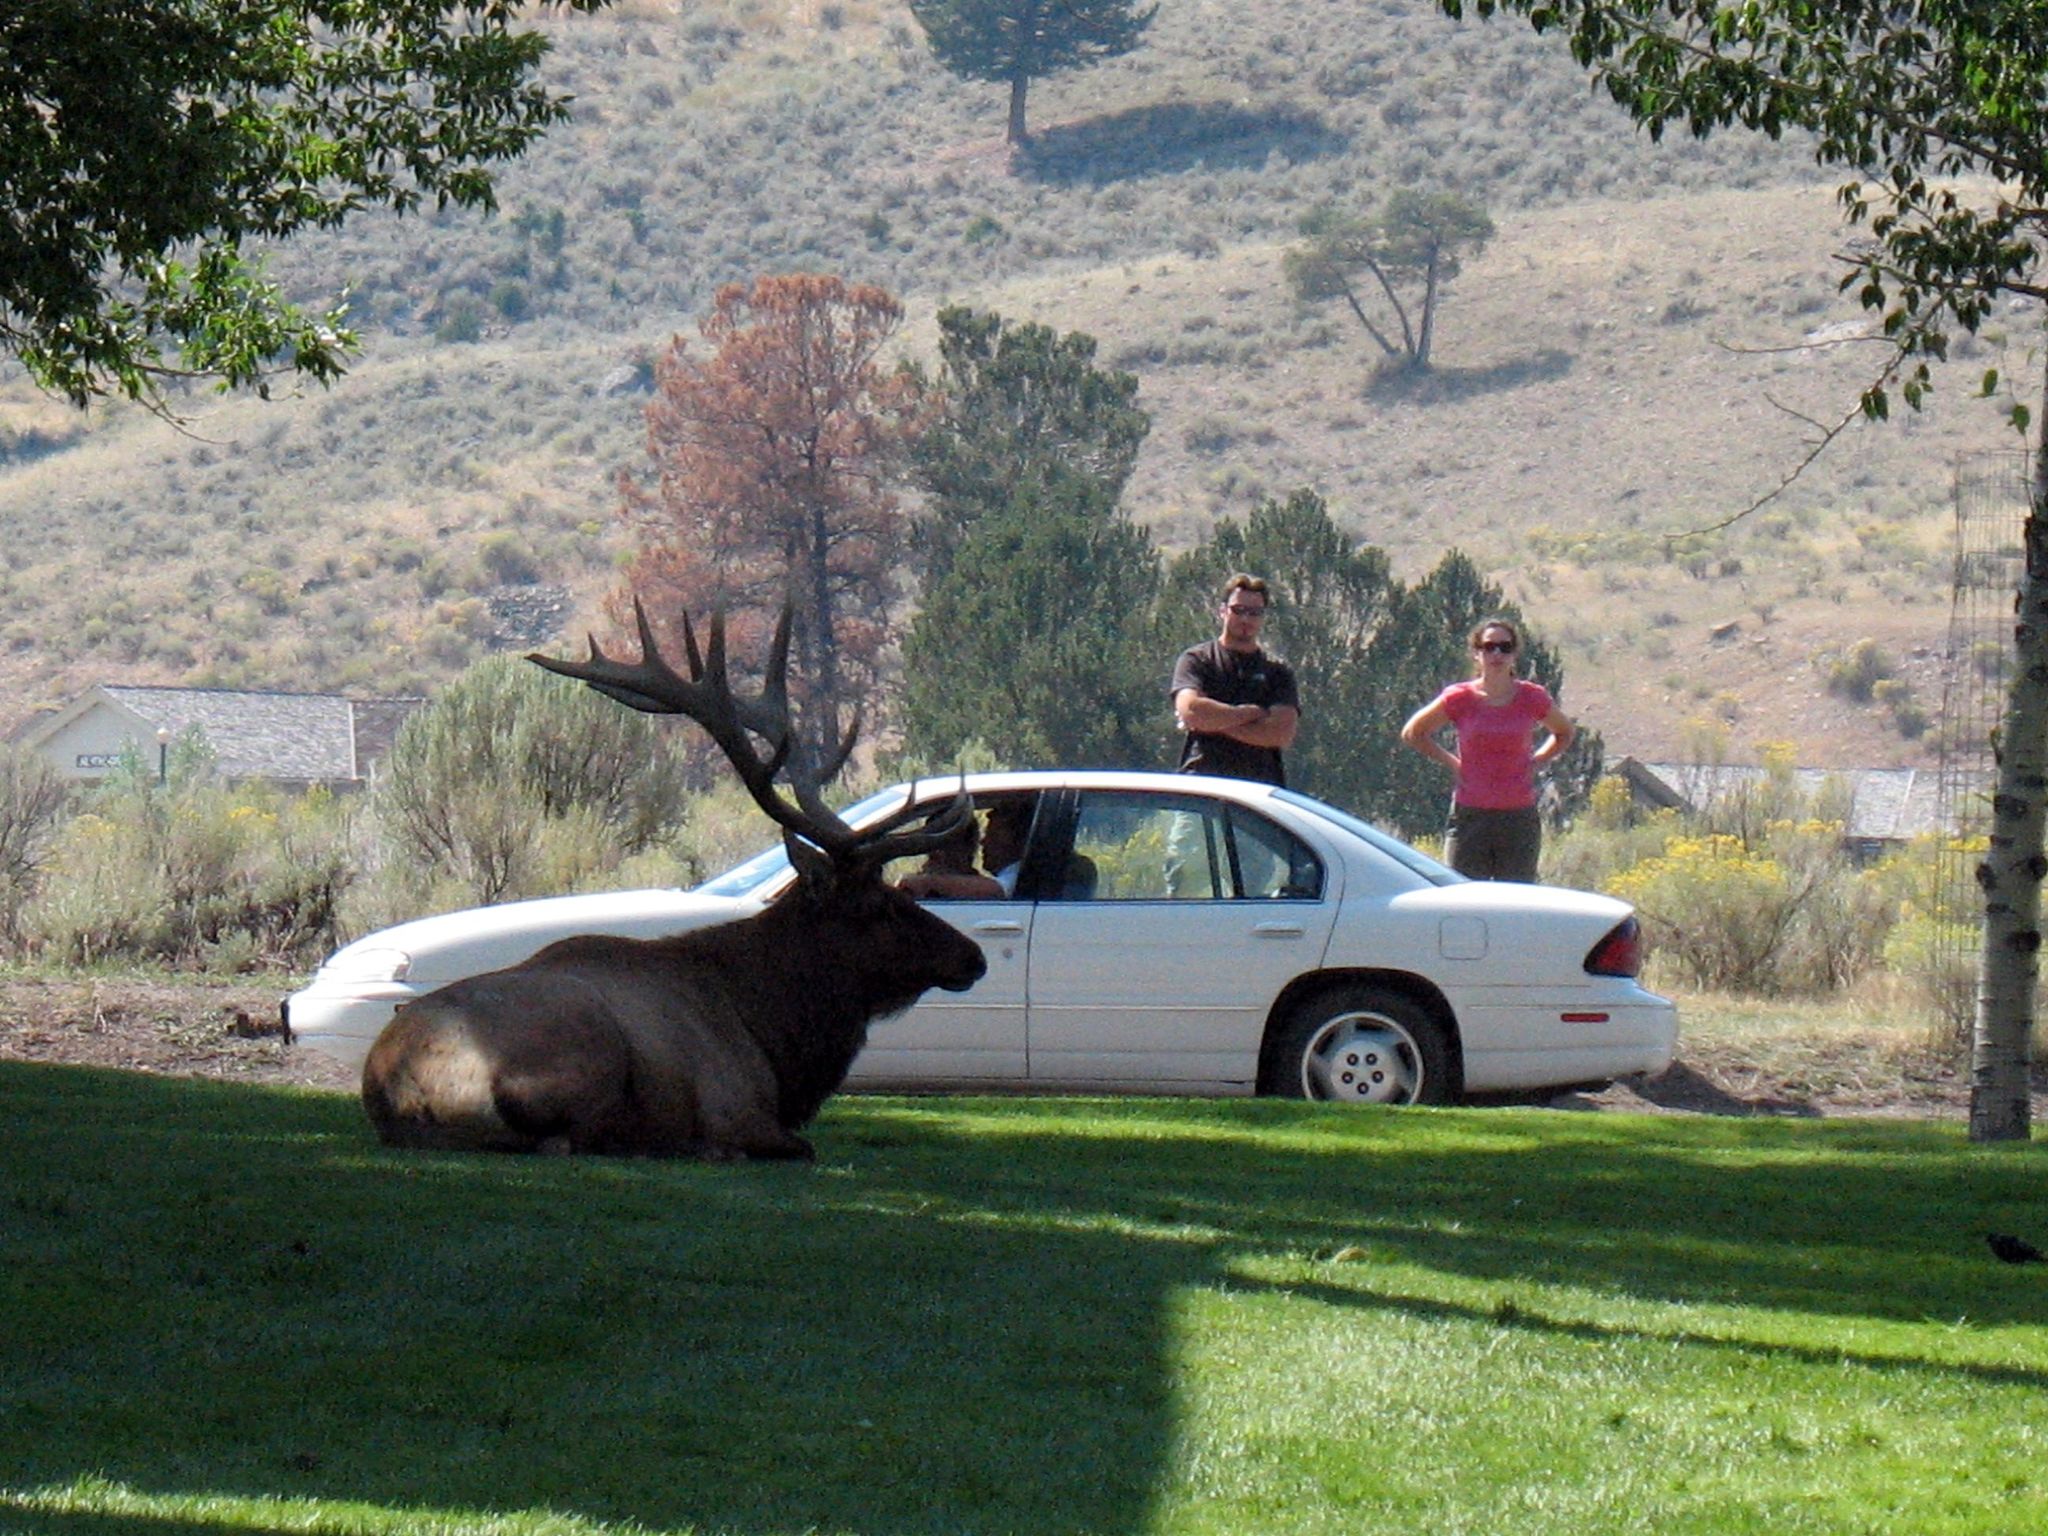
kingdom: Animalia
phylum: Chordata
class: Mammalia
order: Artiodactyla
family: Cervidae
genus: Cervus
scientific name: Cervus elaphus
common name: Red deer
